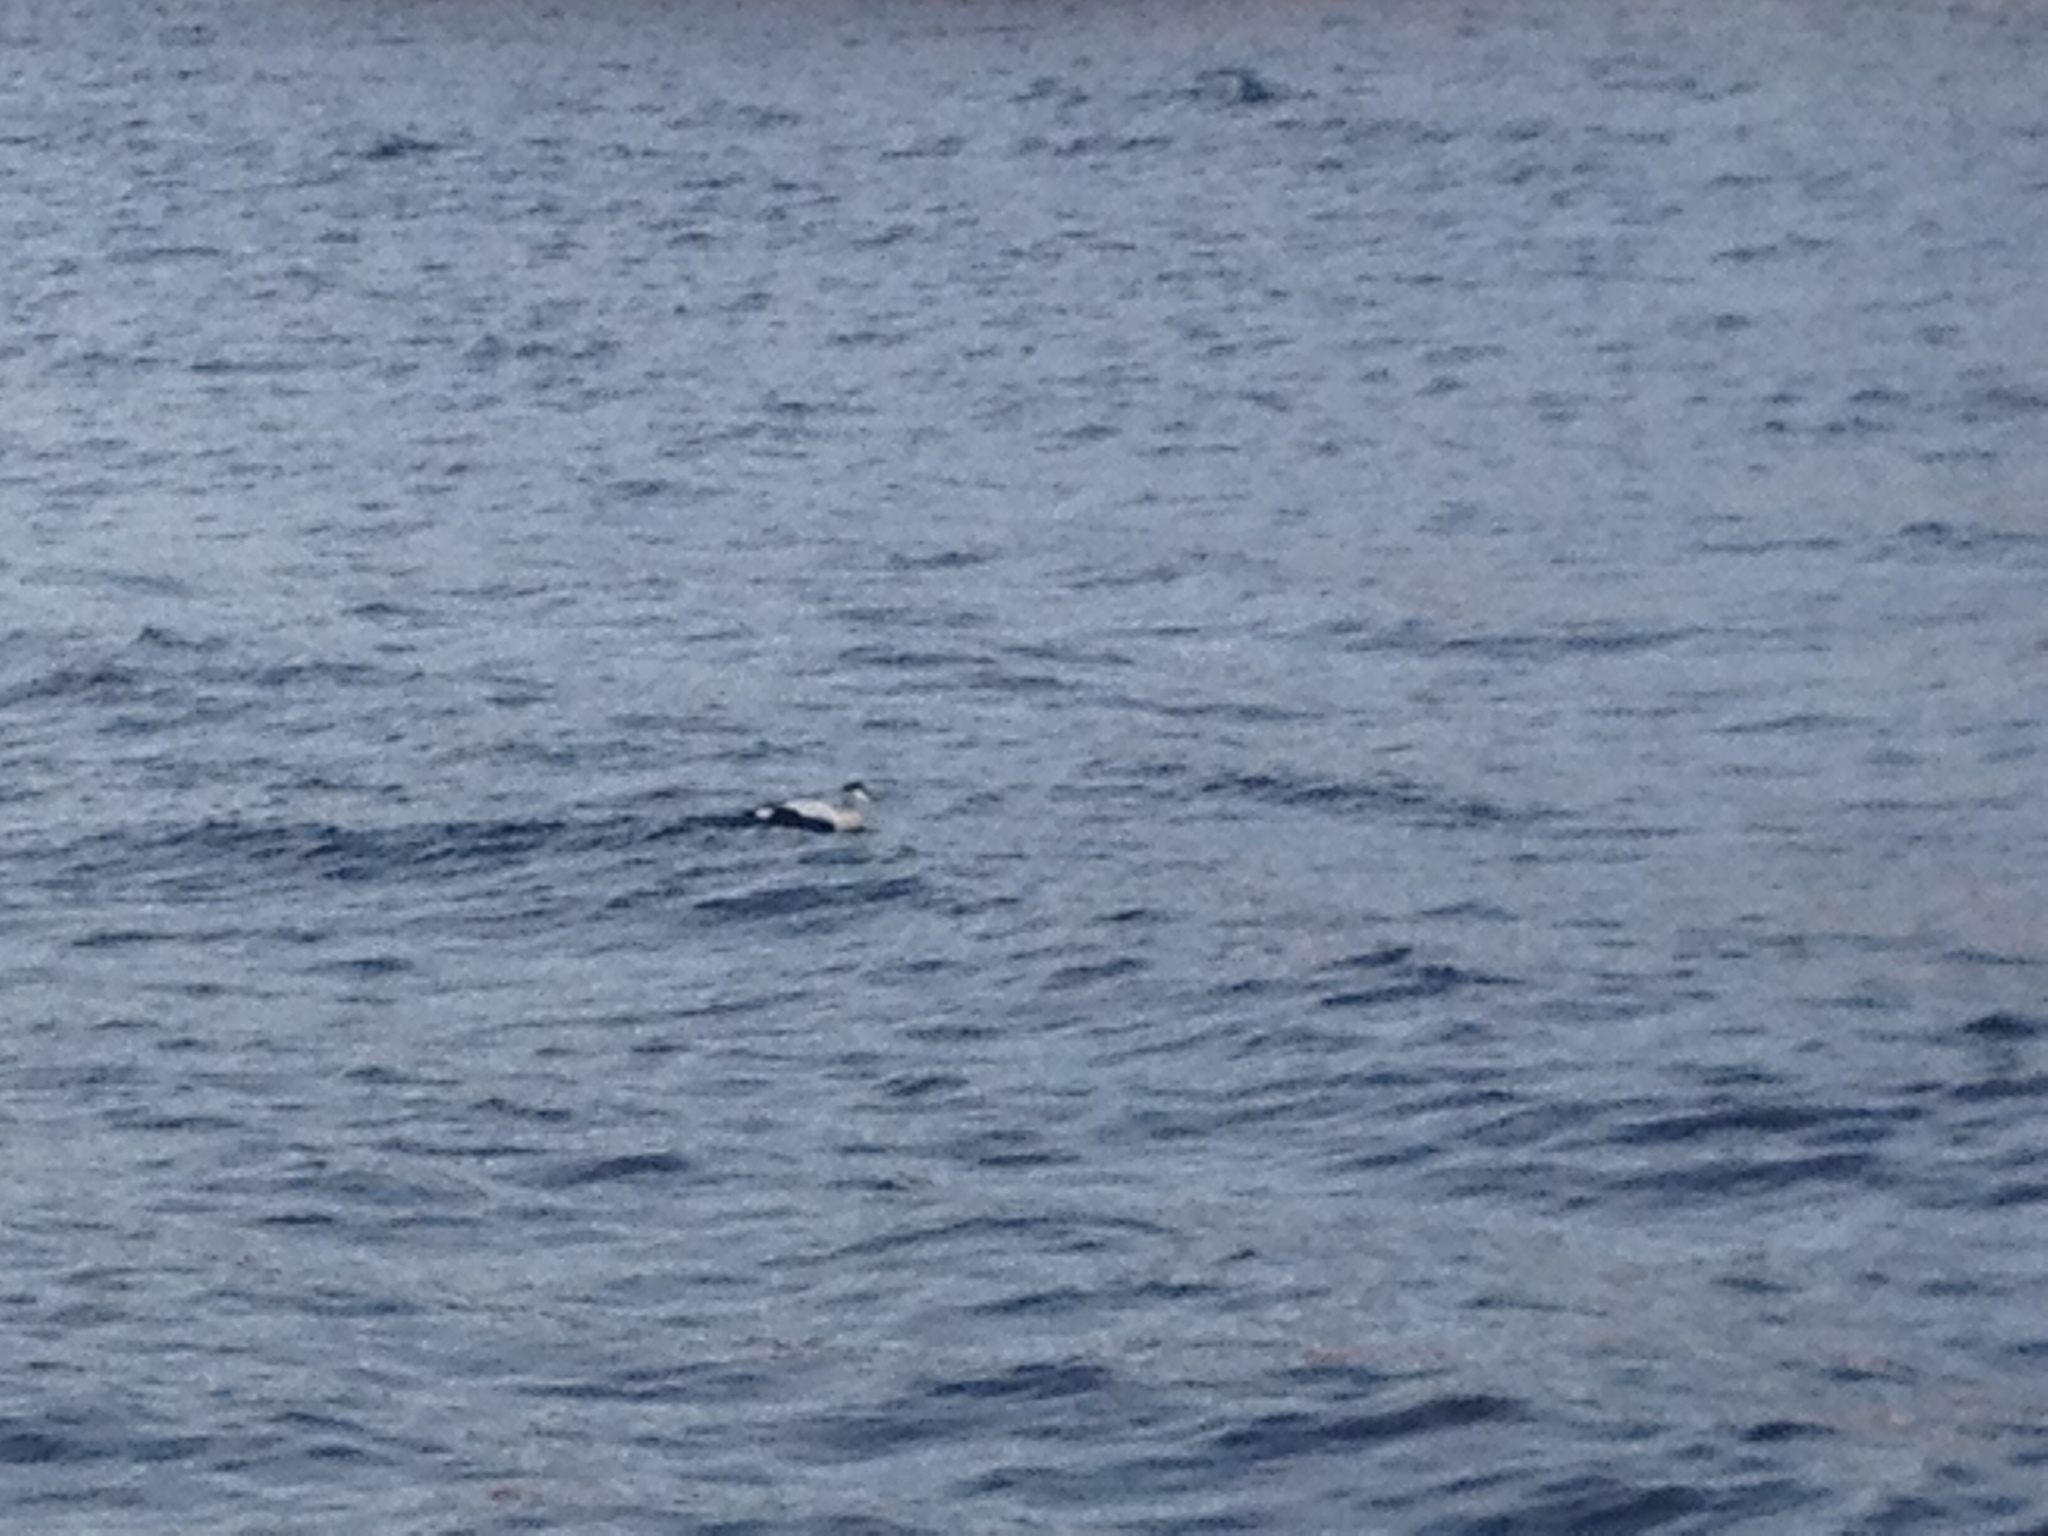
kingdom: Animalia
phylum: Chordata
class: Aves
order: Anseriformes
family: Anatidae
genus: Somateria
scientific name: Somateria mollissima
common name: Common eider
